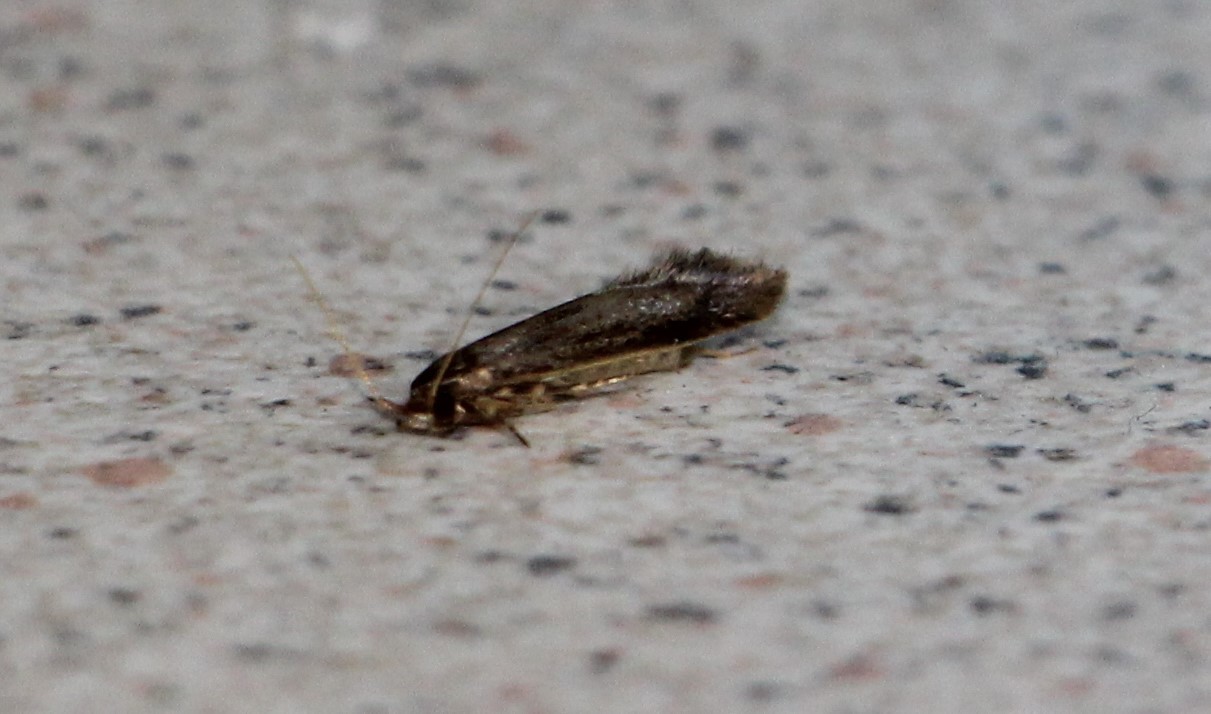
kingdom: Animalia
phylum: Arthropoda
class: Insecta
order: Lepidoptera
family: Tineidae
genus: Opogona
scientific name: Opogona omoscopa
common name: Moth
